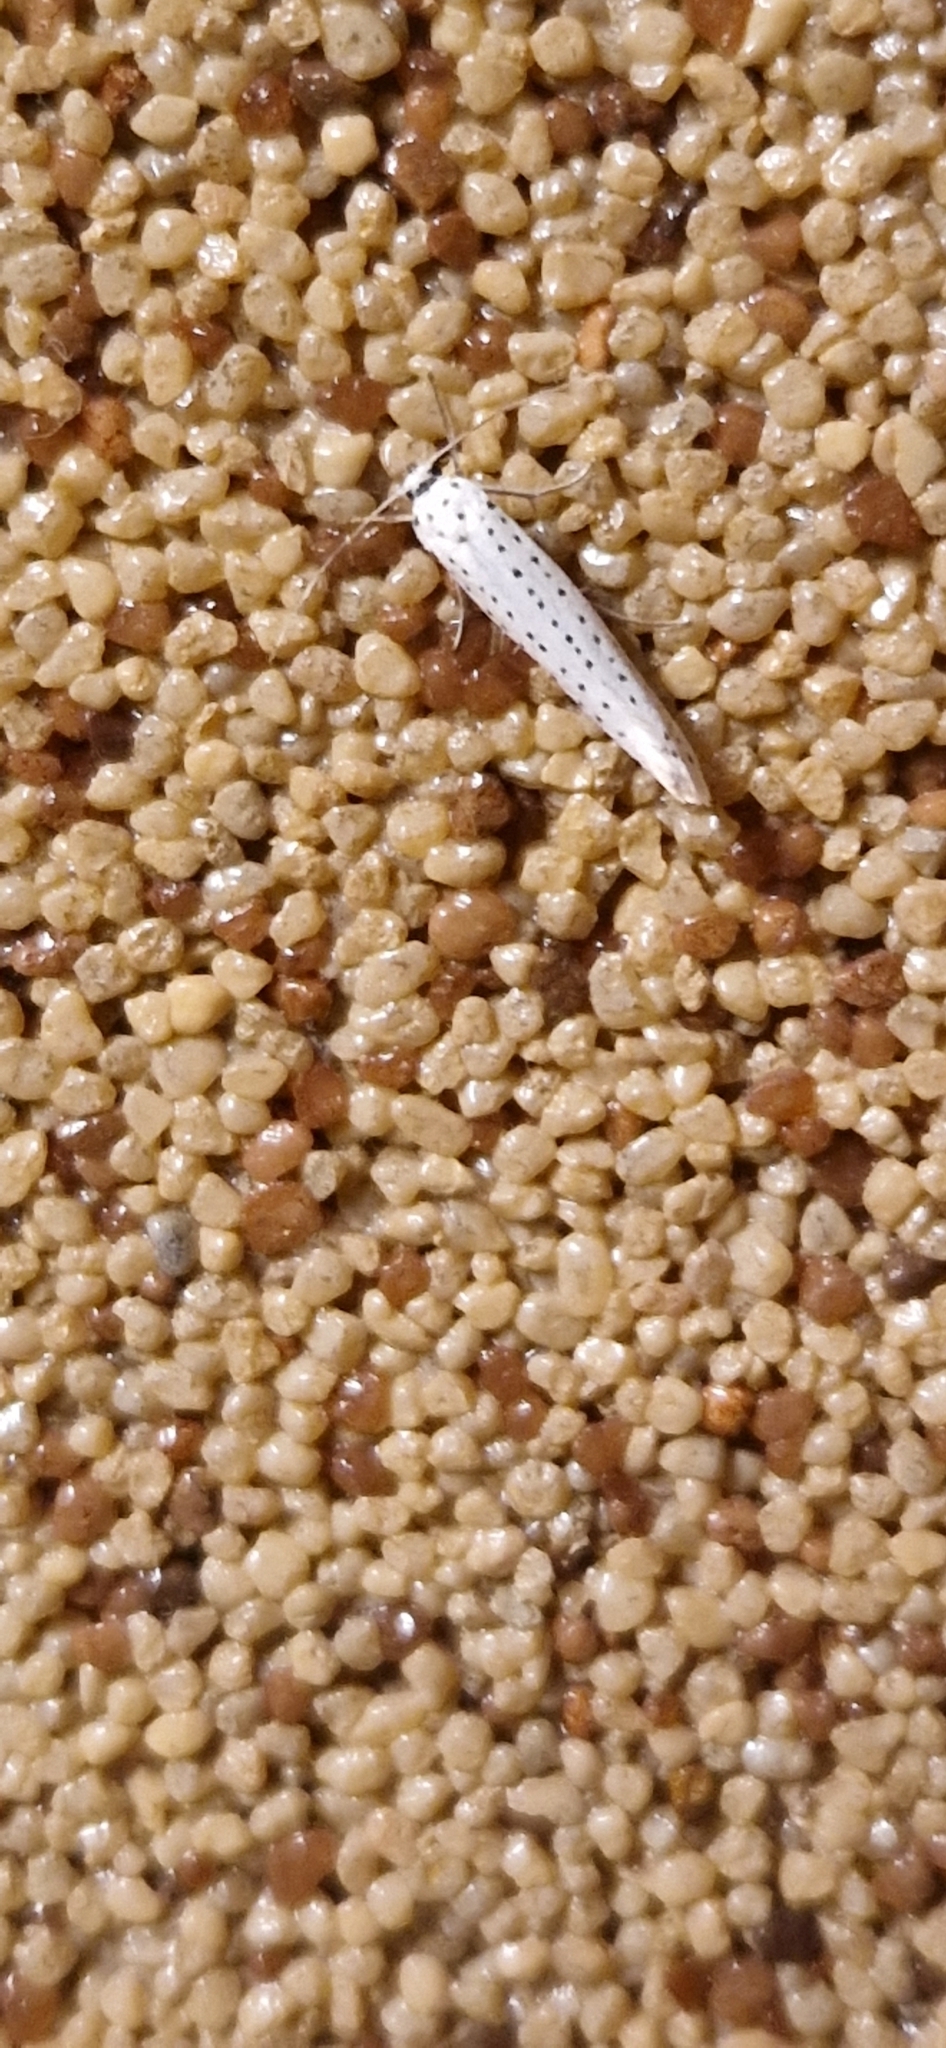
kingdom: Animalia
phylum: Arthropoda
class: Insecta
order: Lepidoptera
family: Yponomeutidae
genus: Yponomeuta
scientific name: Yponomeuta evonymella
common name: Bird-cherry ermine
